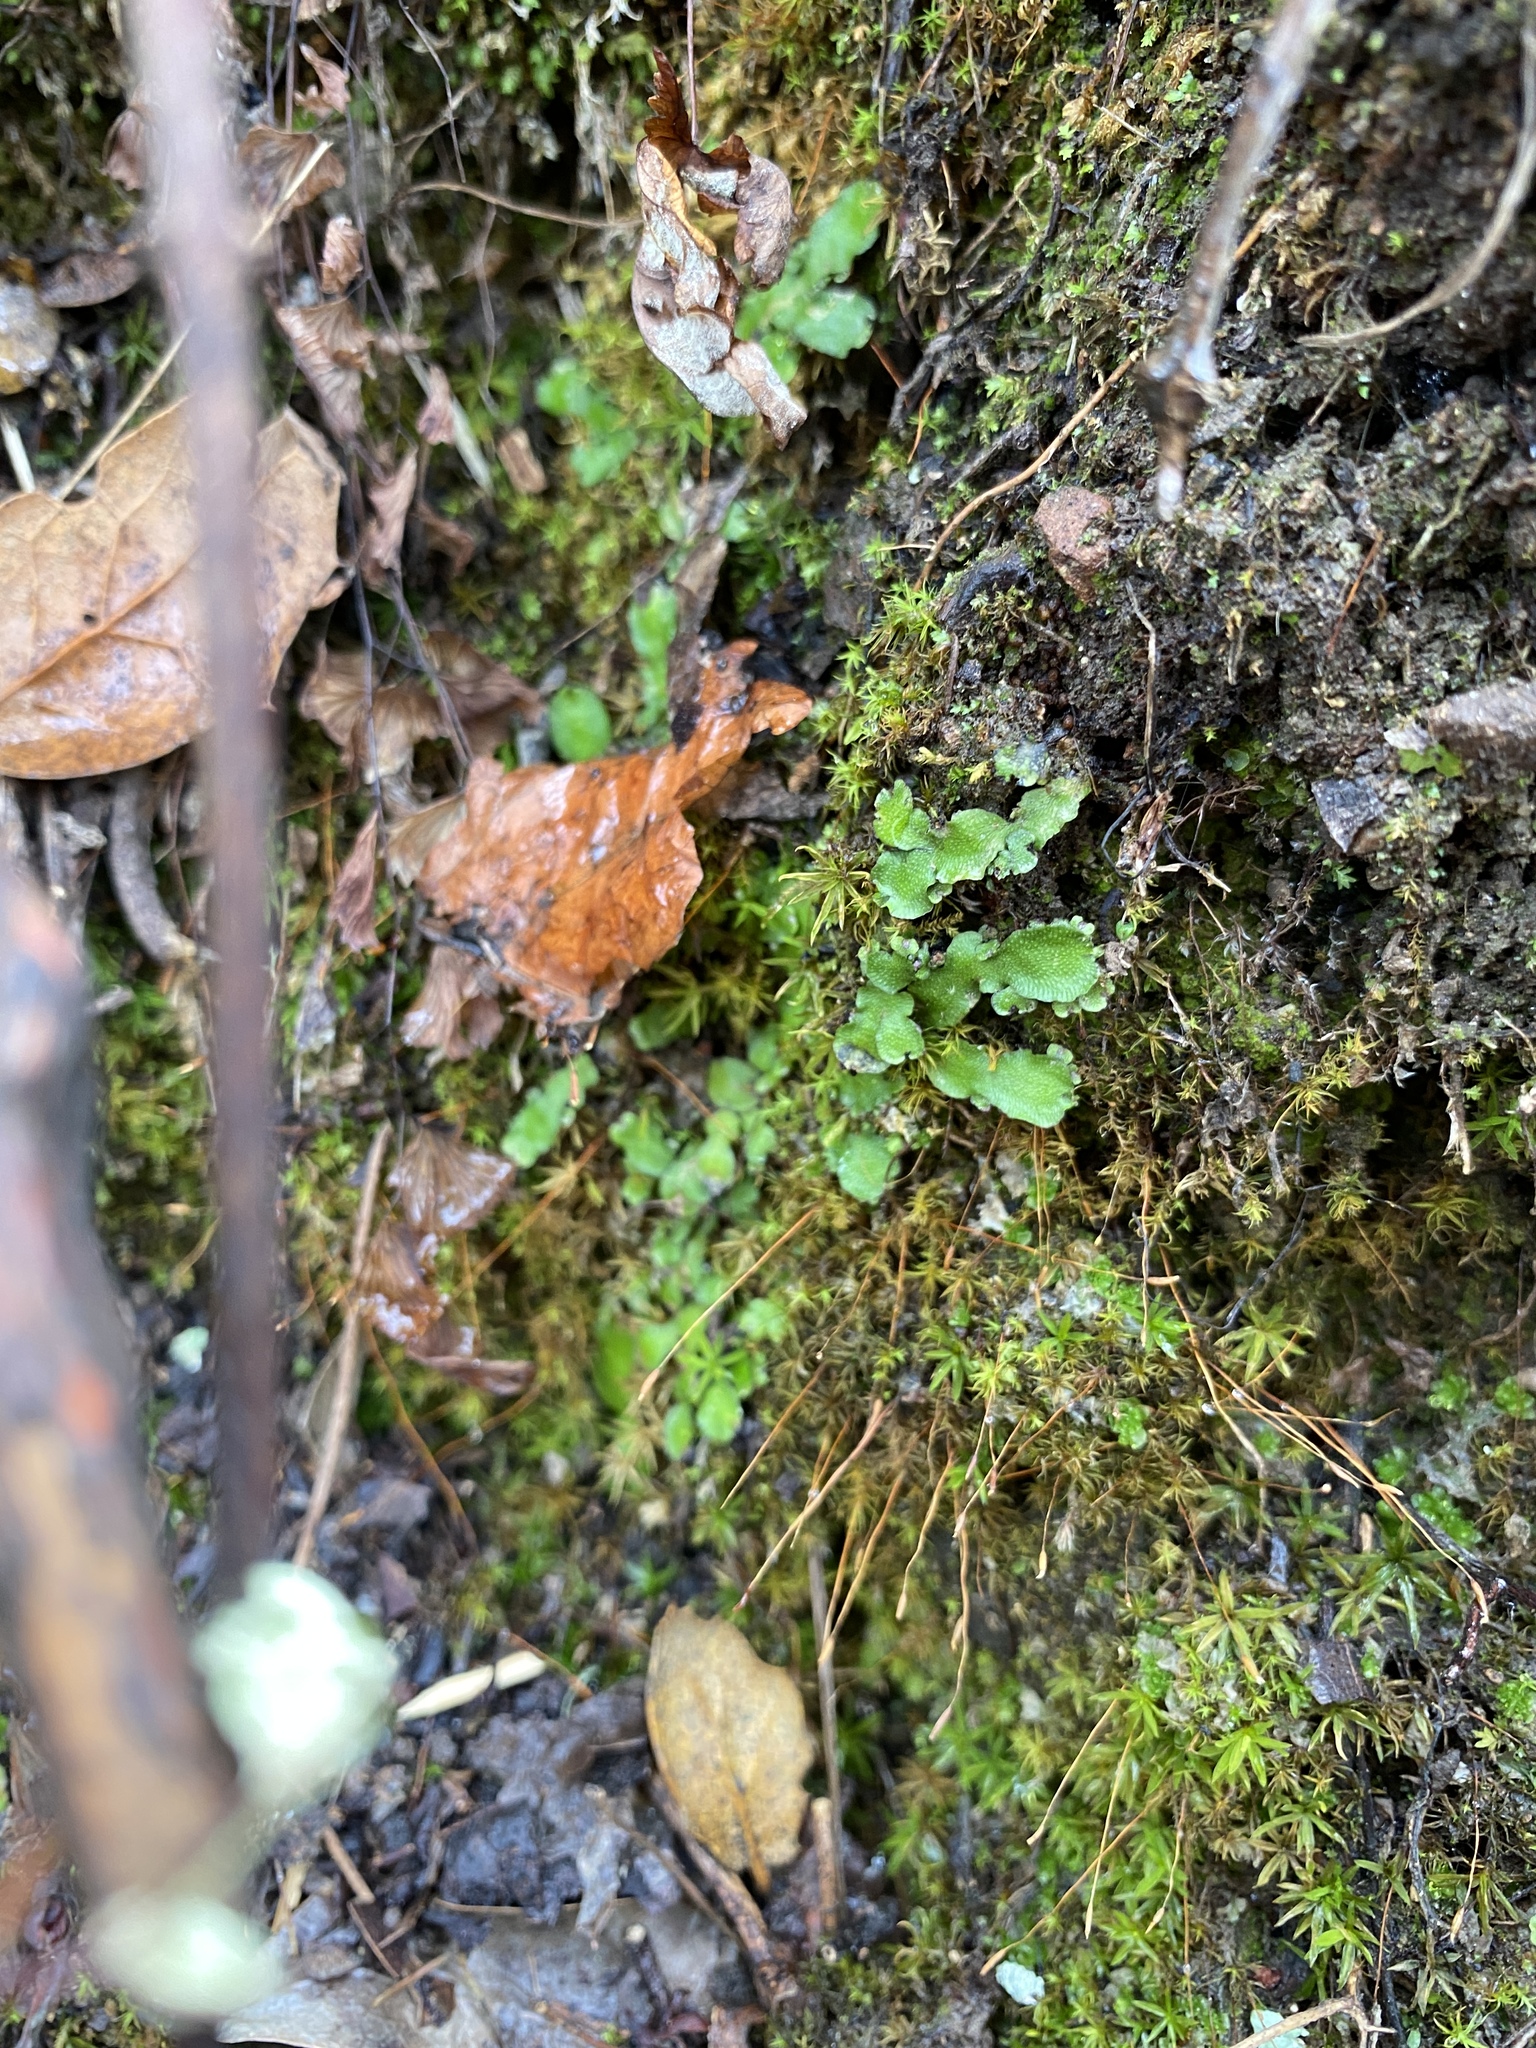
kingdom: Plantae
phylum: Marchantiophyta
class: Marchantiopsida
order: Marchantiales
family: Conocephalaceae
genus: Conocephalum
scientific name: Conocephalum salebrosum
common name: Cat-tongue liverwort
